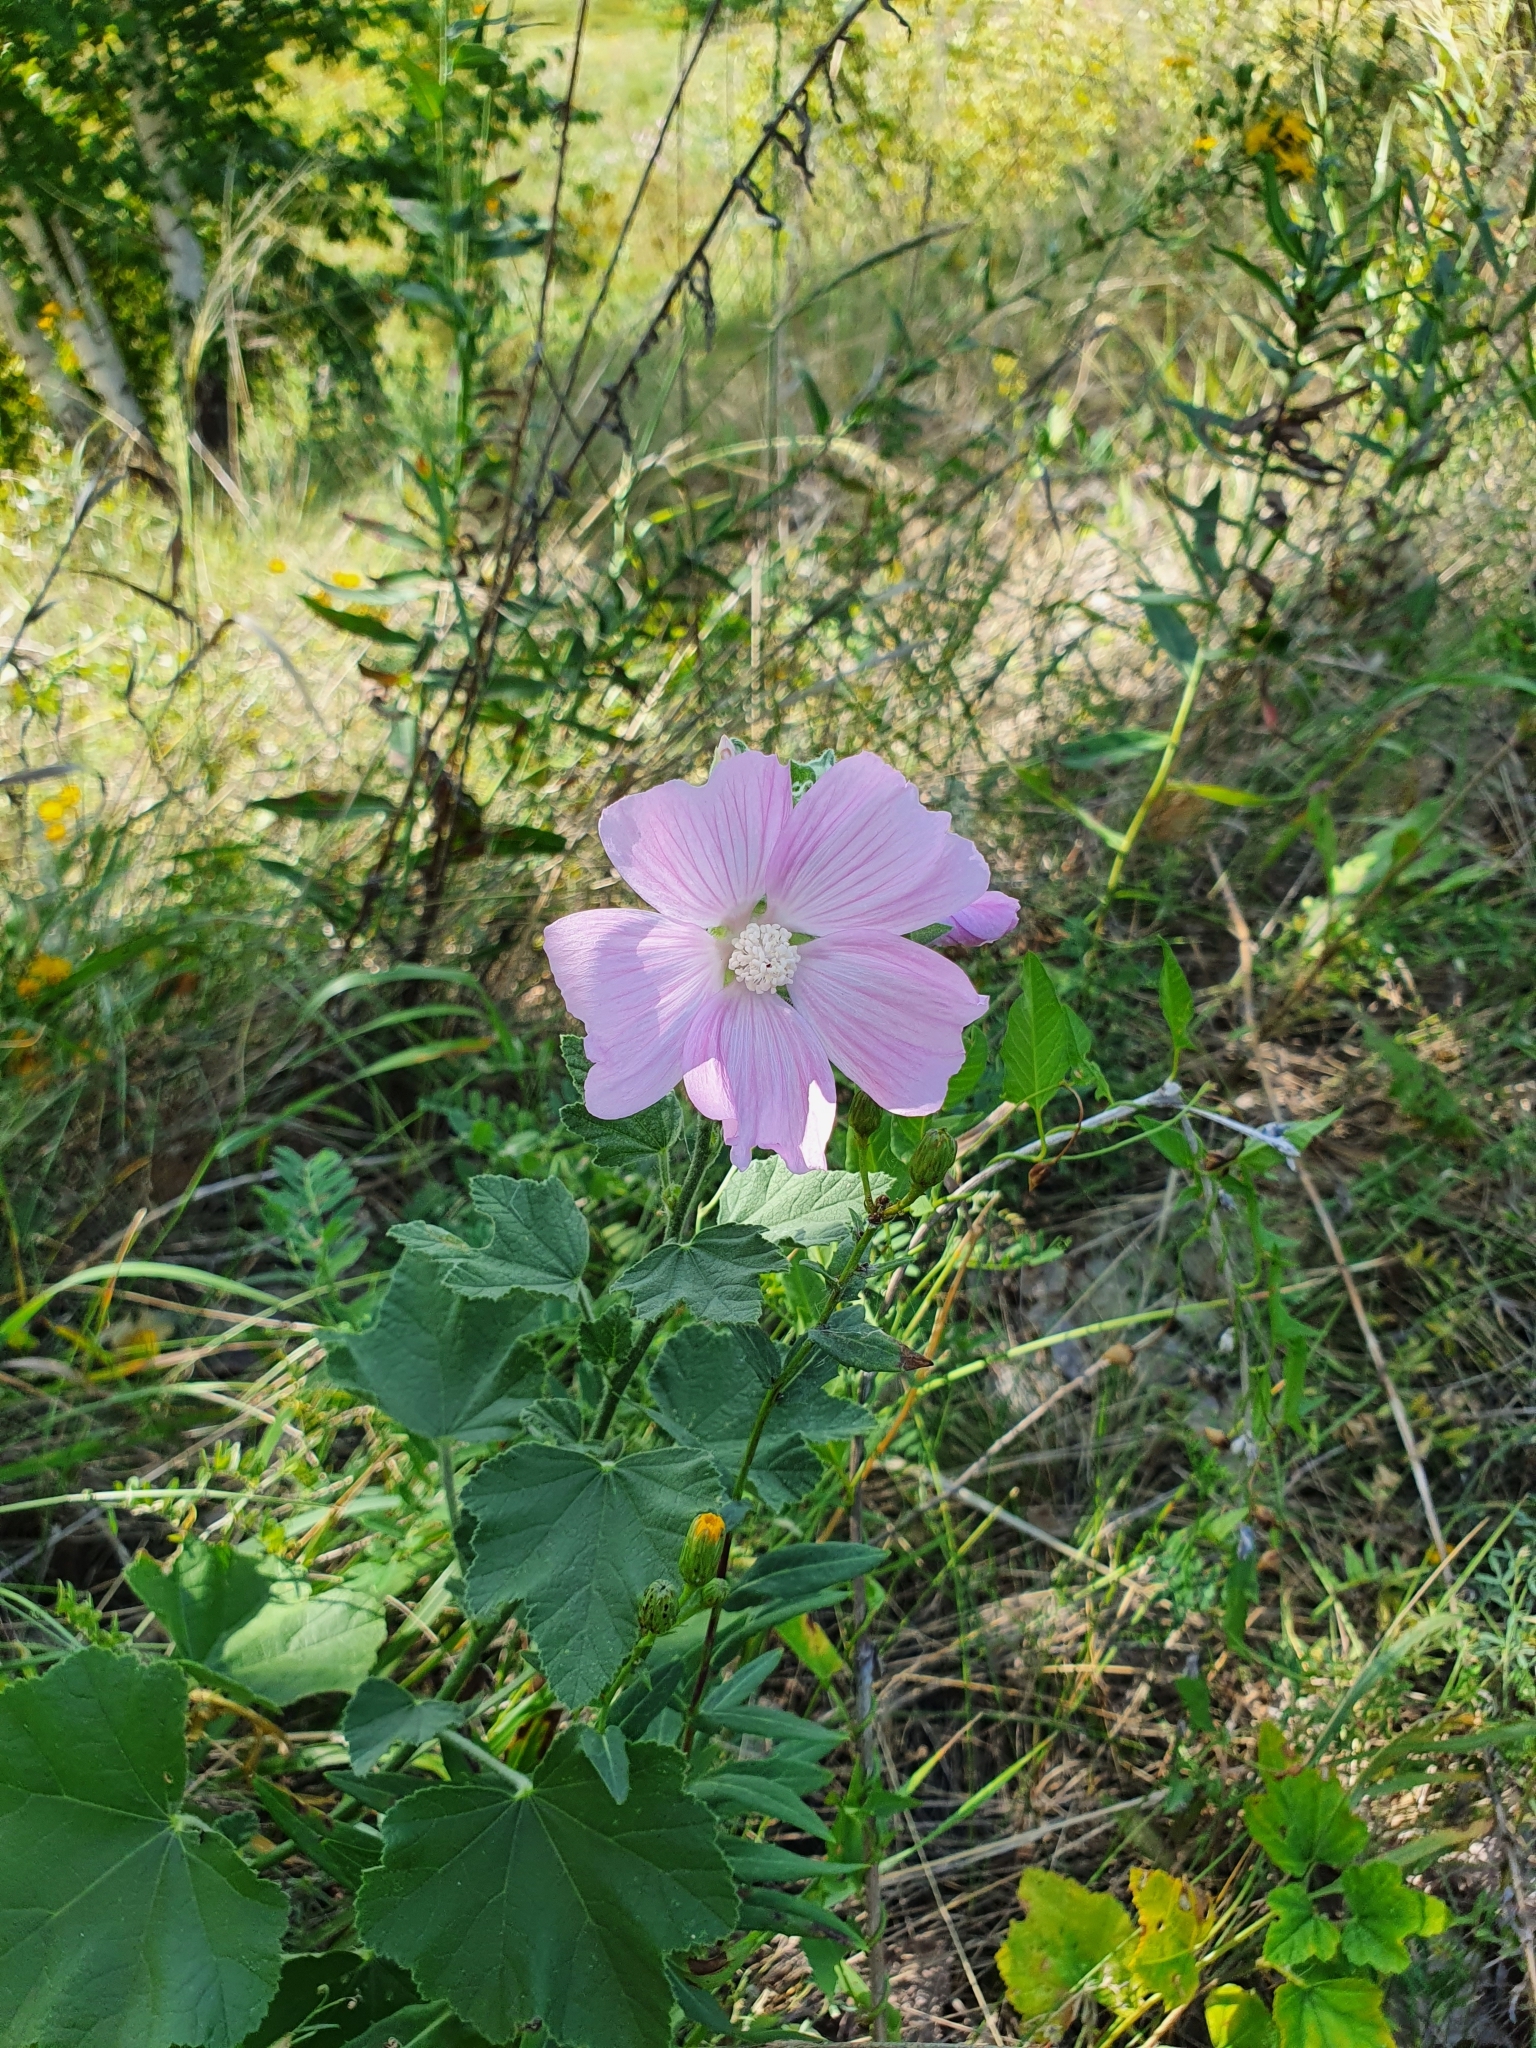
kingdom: Plantae
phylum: Tracheophyta
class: Magnoliopsida
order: Malvales
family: Malvaceae
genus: Malva
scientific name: Malva thuringiaca
